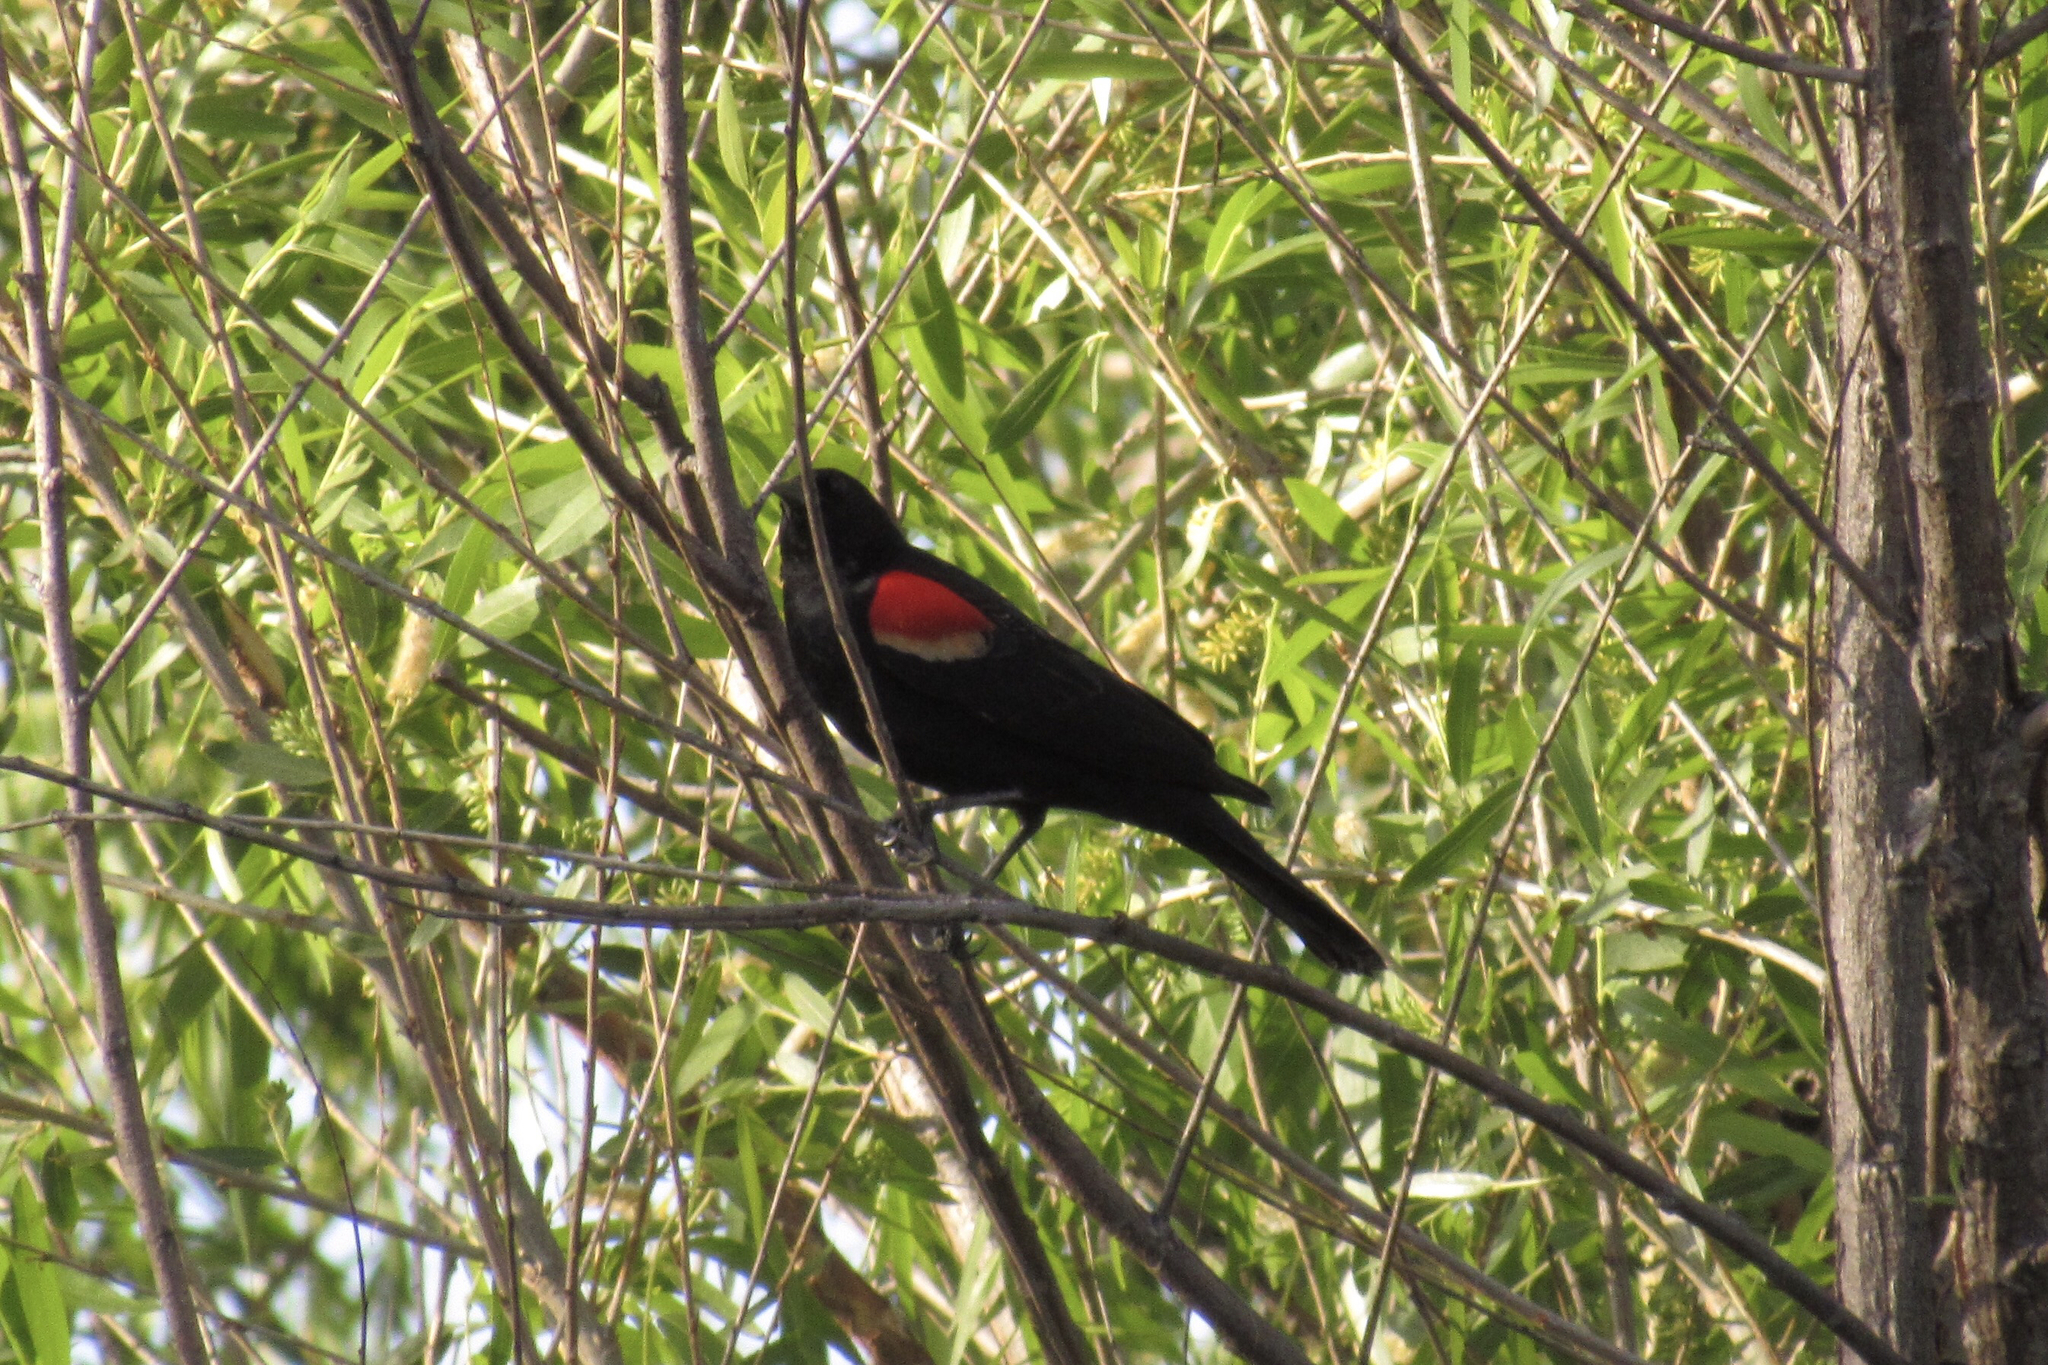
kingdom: Animalia
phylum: Chordata
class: Aves
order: Passeriformes
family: Icteridae
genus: Agelaius
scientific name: Agelaius phoeniceus
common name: Red-winged blackbird
